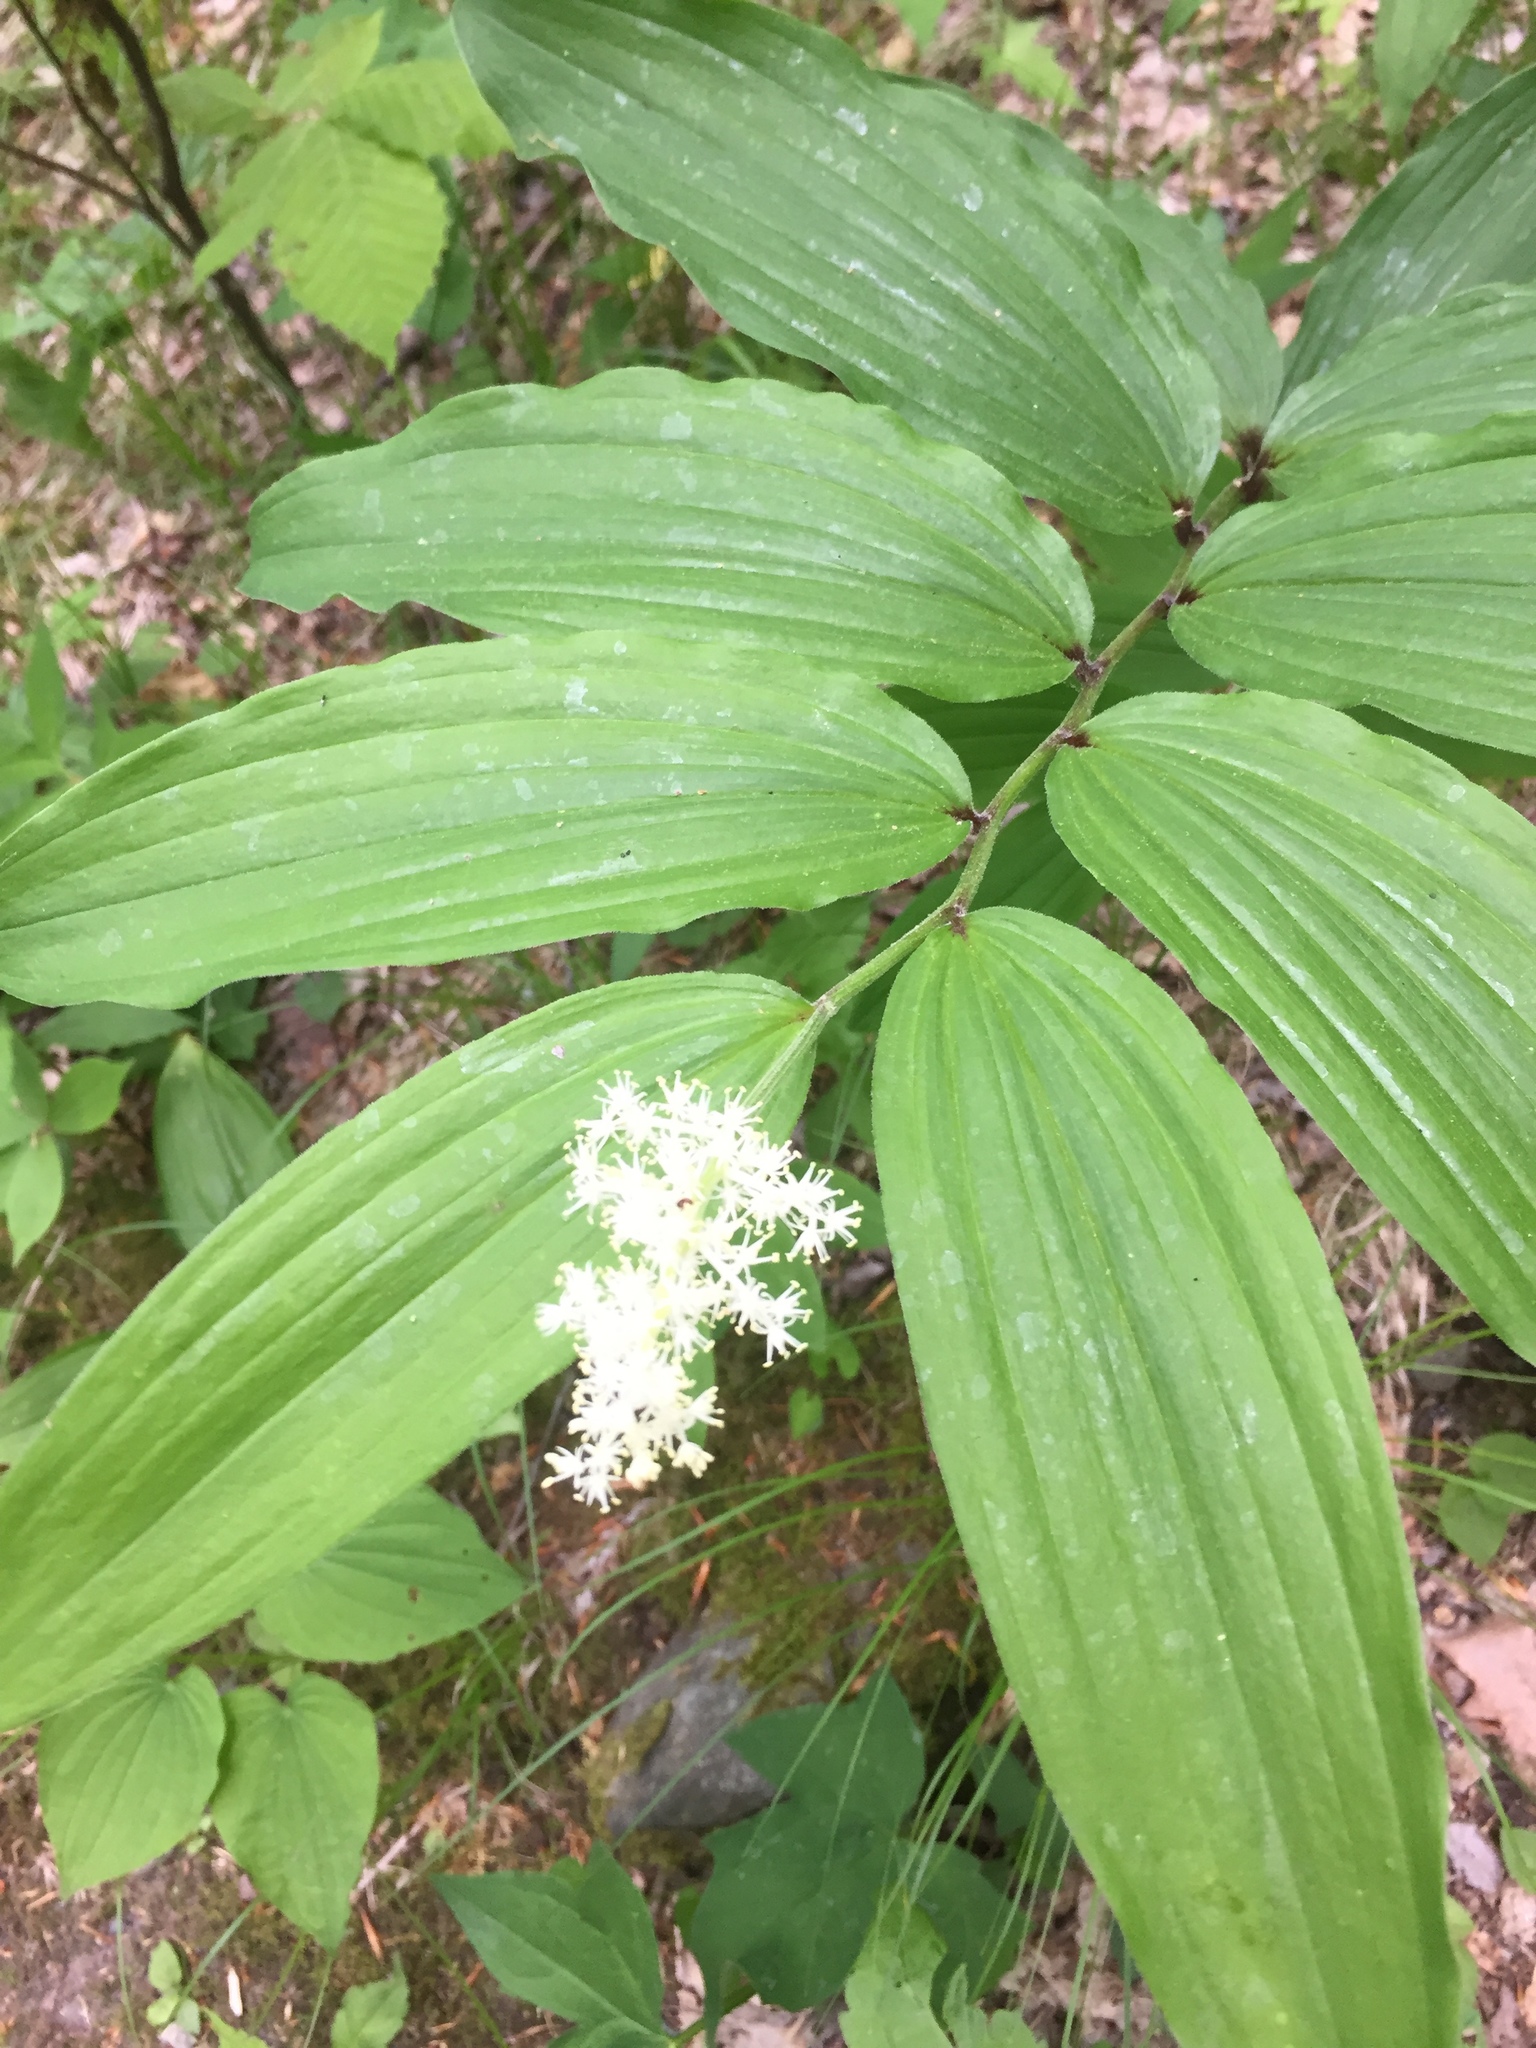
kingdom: Plantae
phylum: Tracheophyta
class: Liliopsida
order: Asparagales
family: Asparagaceae
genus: Maianthemum
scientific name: Maianthemum racemosum
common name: False spikenard
